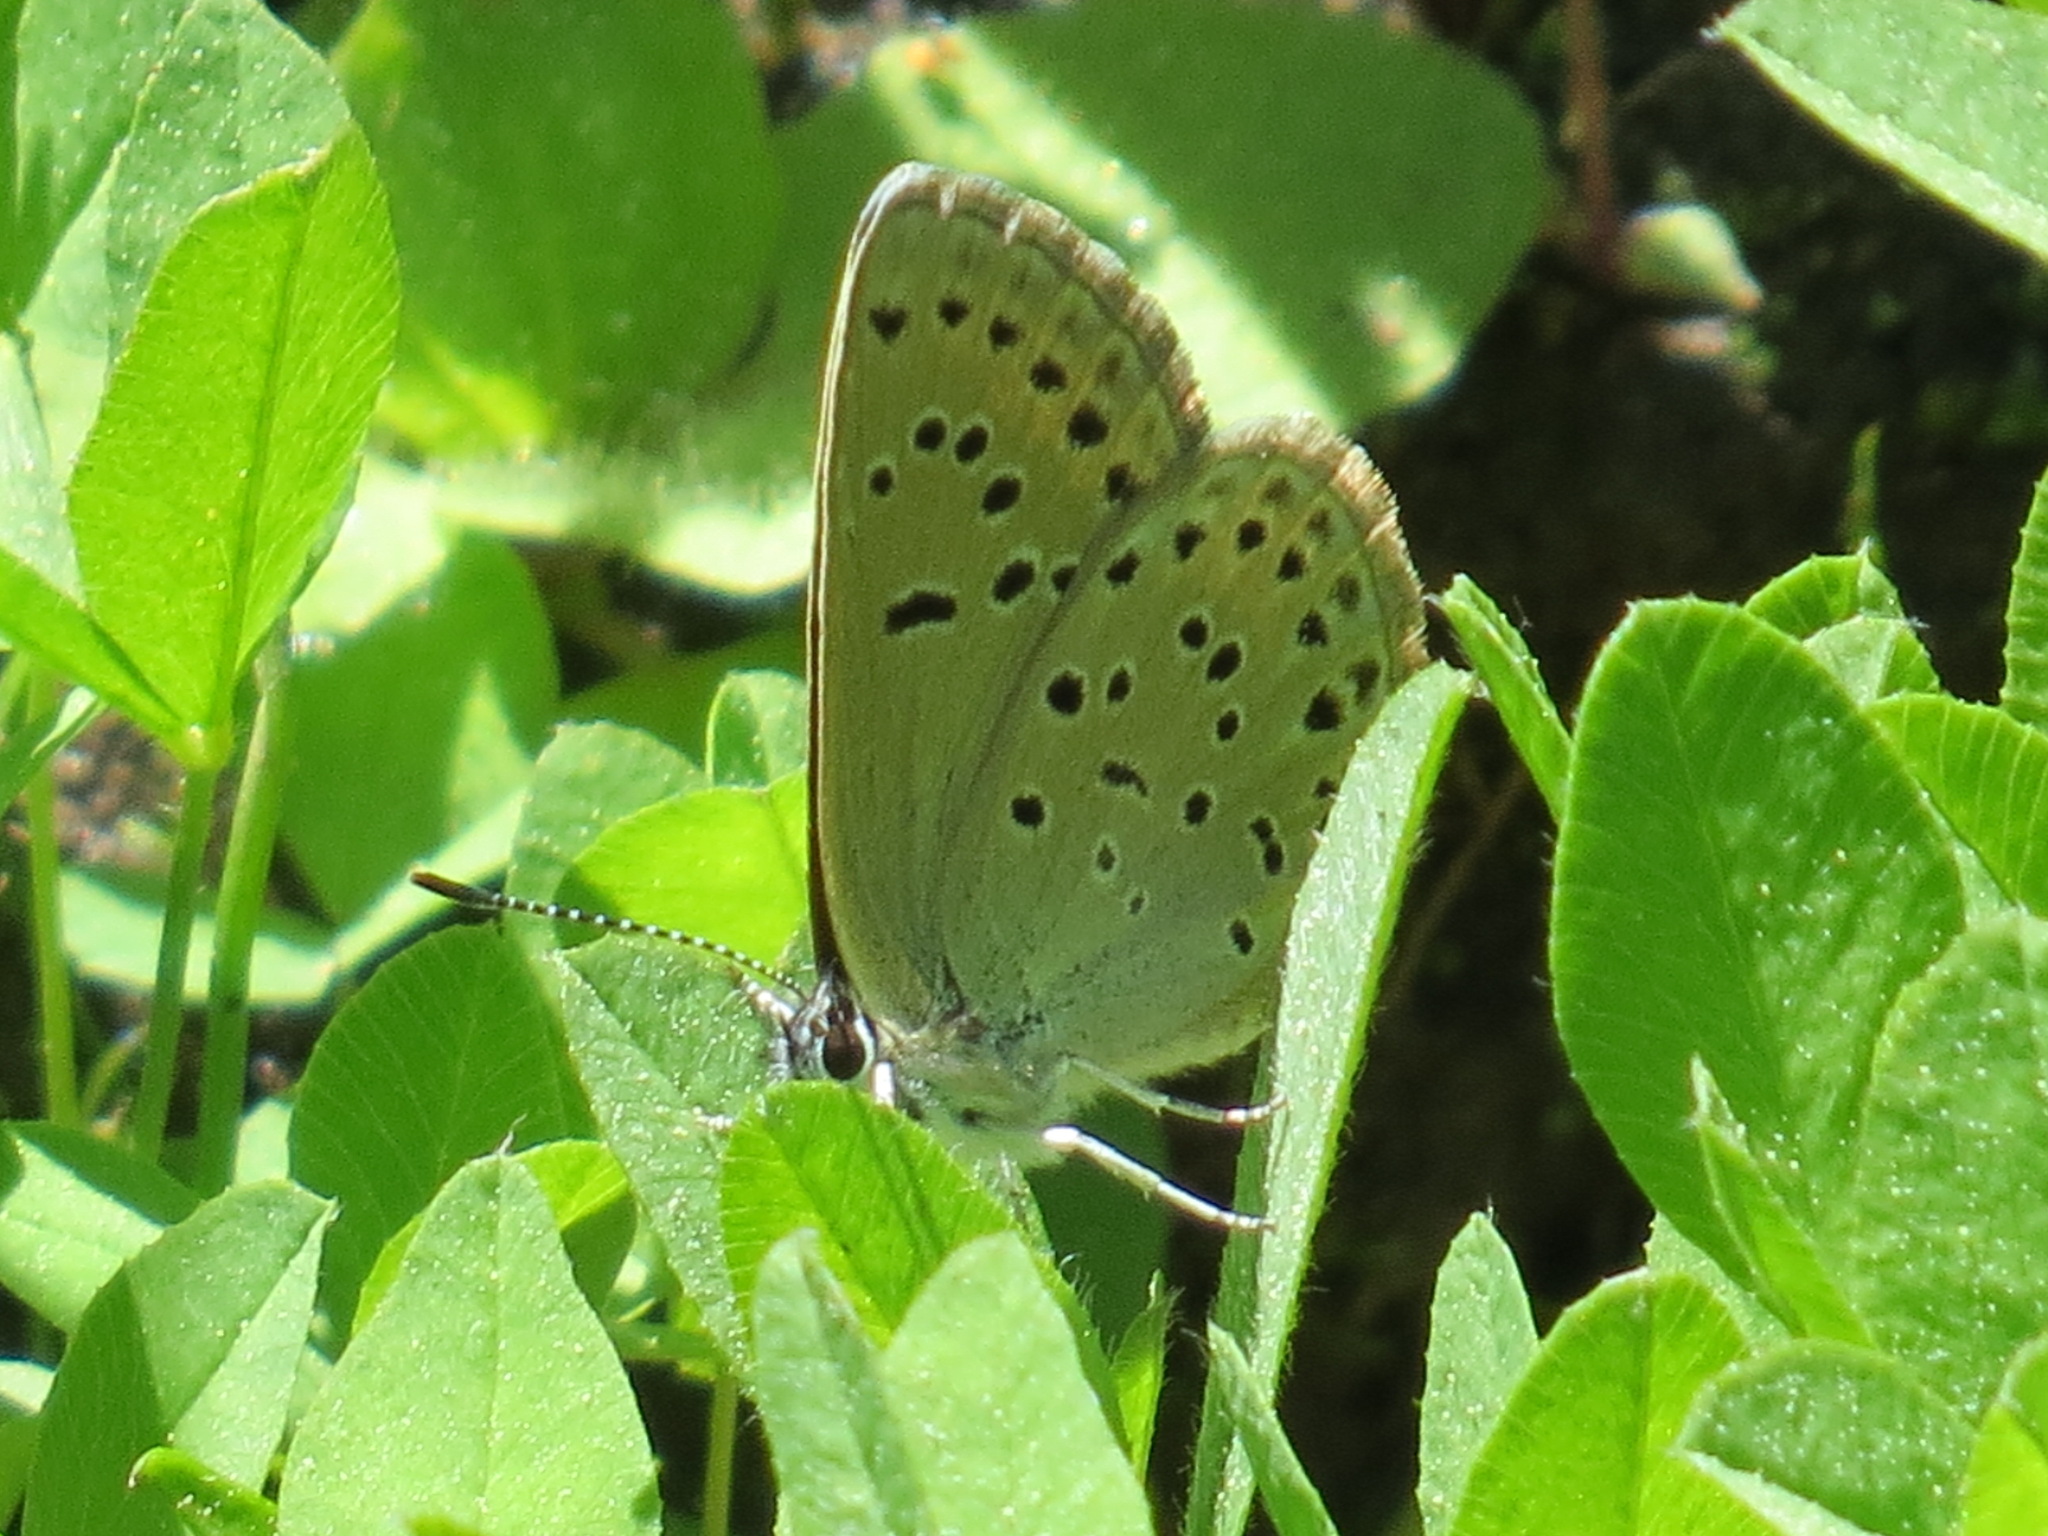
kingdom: Animalia
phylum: Arthropoda
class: Insecta
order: Lepidoptera
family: Lycaenidae
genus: Icaricia
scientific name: Icaricia saepiolus
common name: Greenish blue
